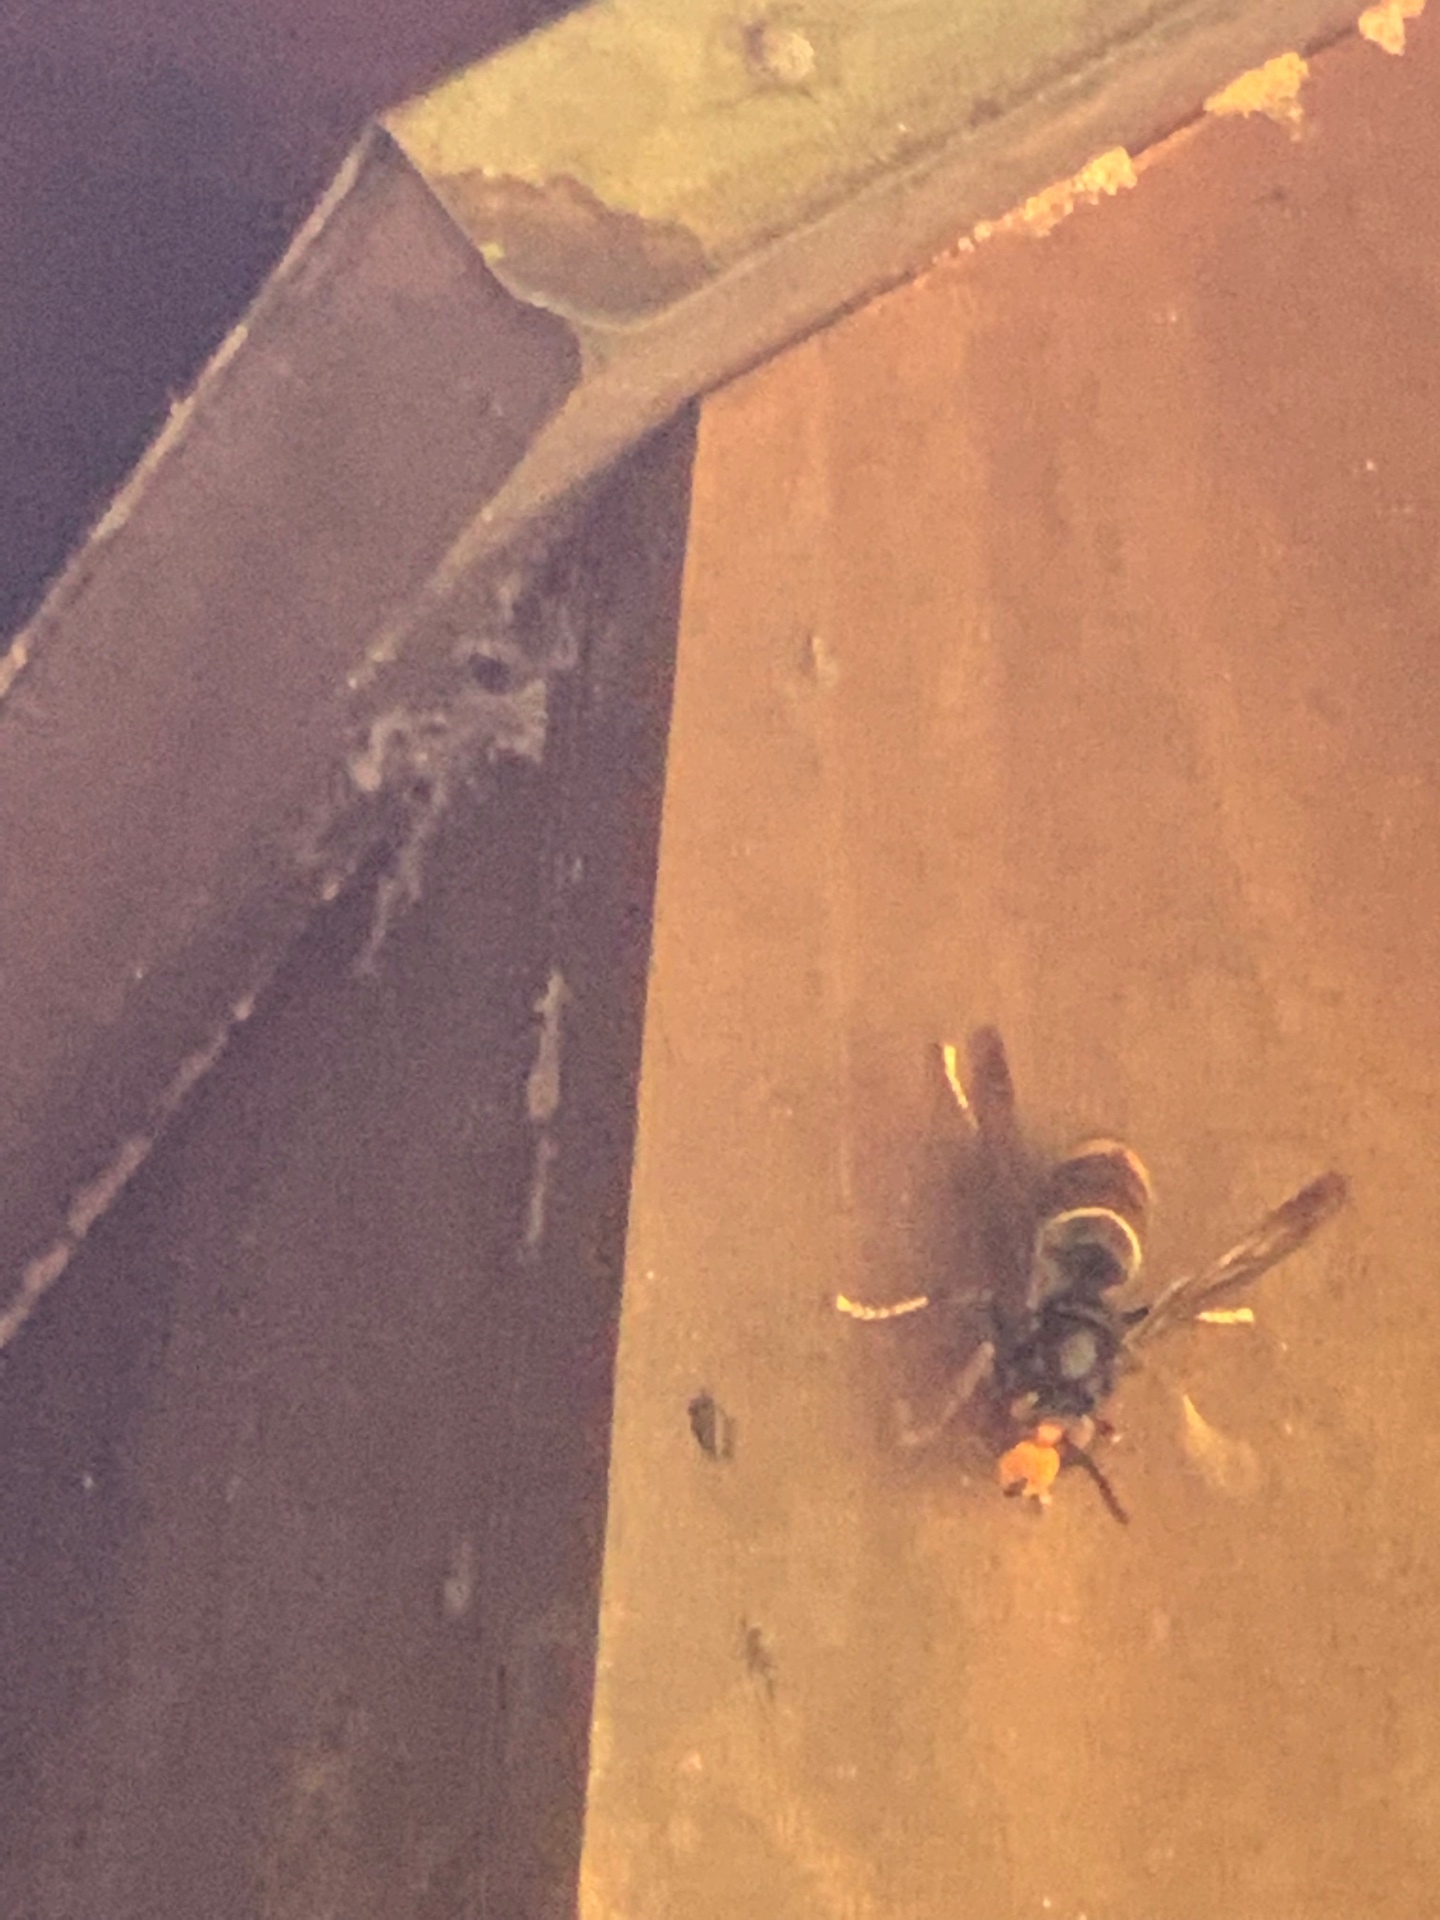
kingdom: Animalia
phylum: Arthropoda
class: Insecta
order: Hymenoptera
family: Vespidae
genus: Vespa
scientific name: Vespa velutina
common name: Asian hornet
